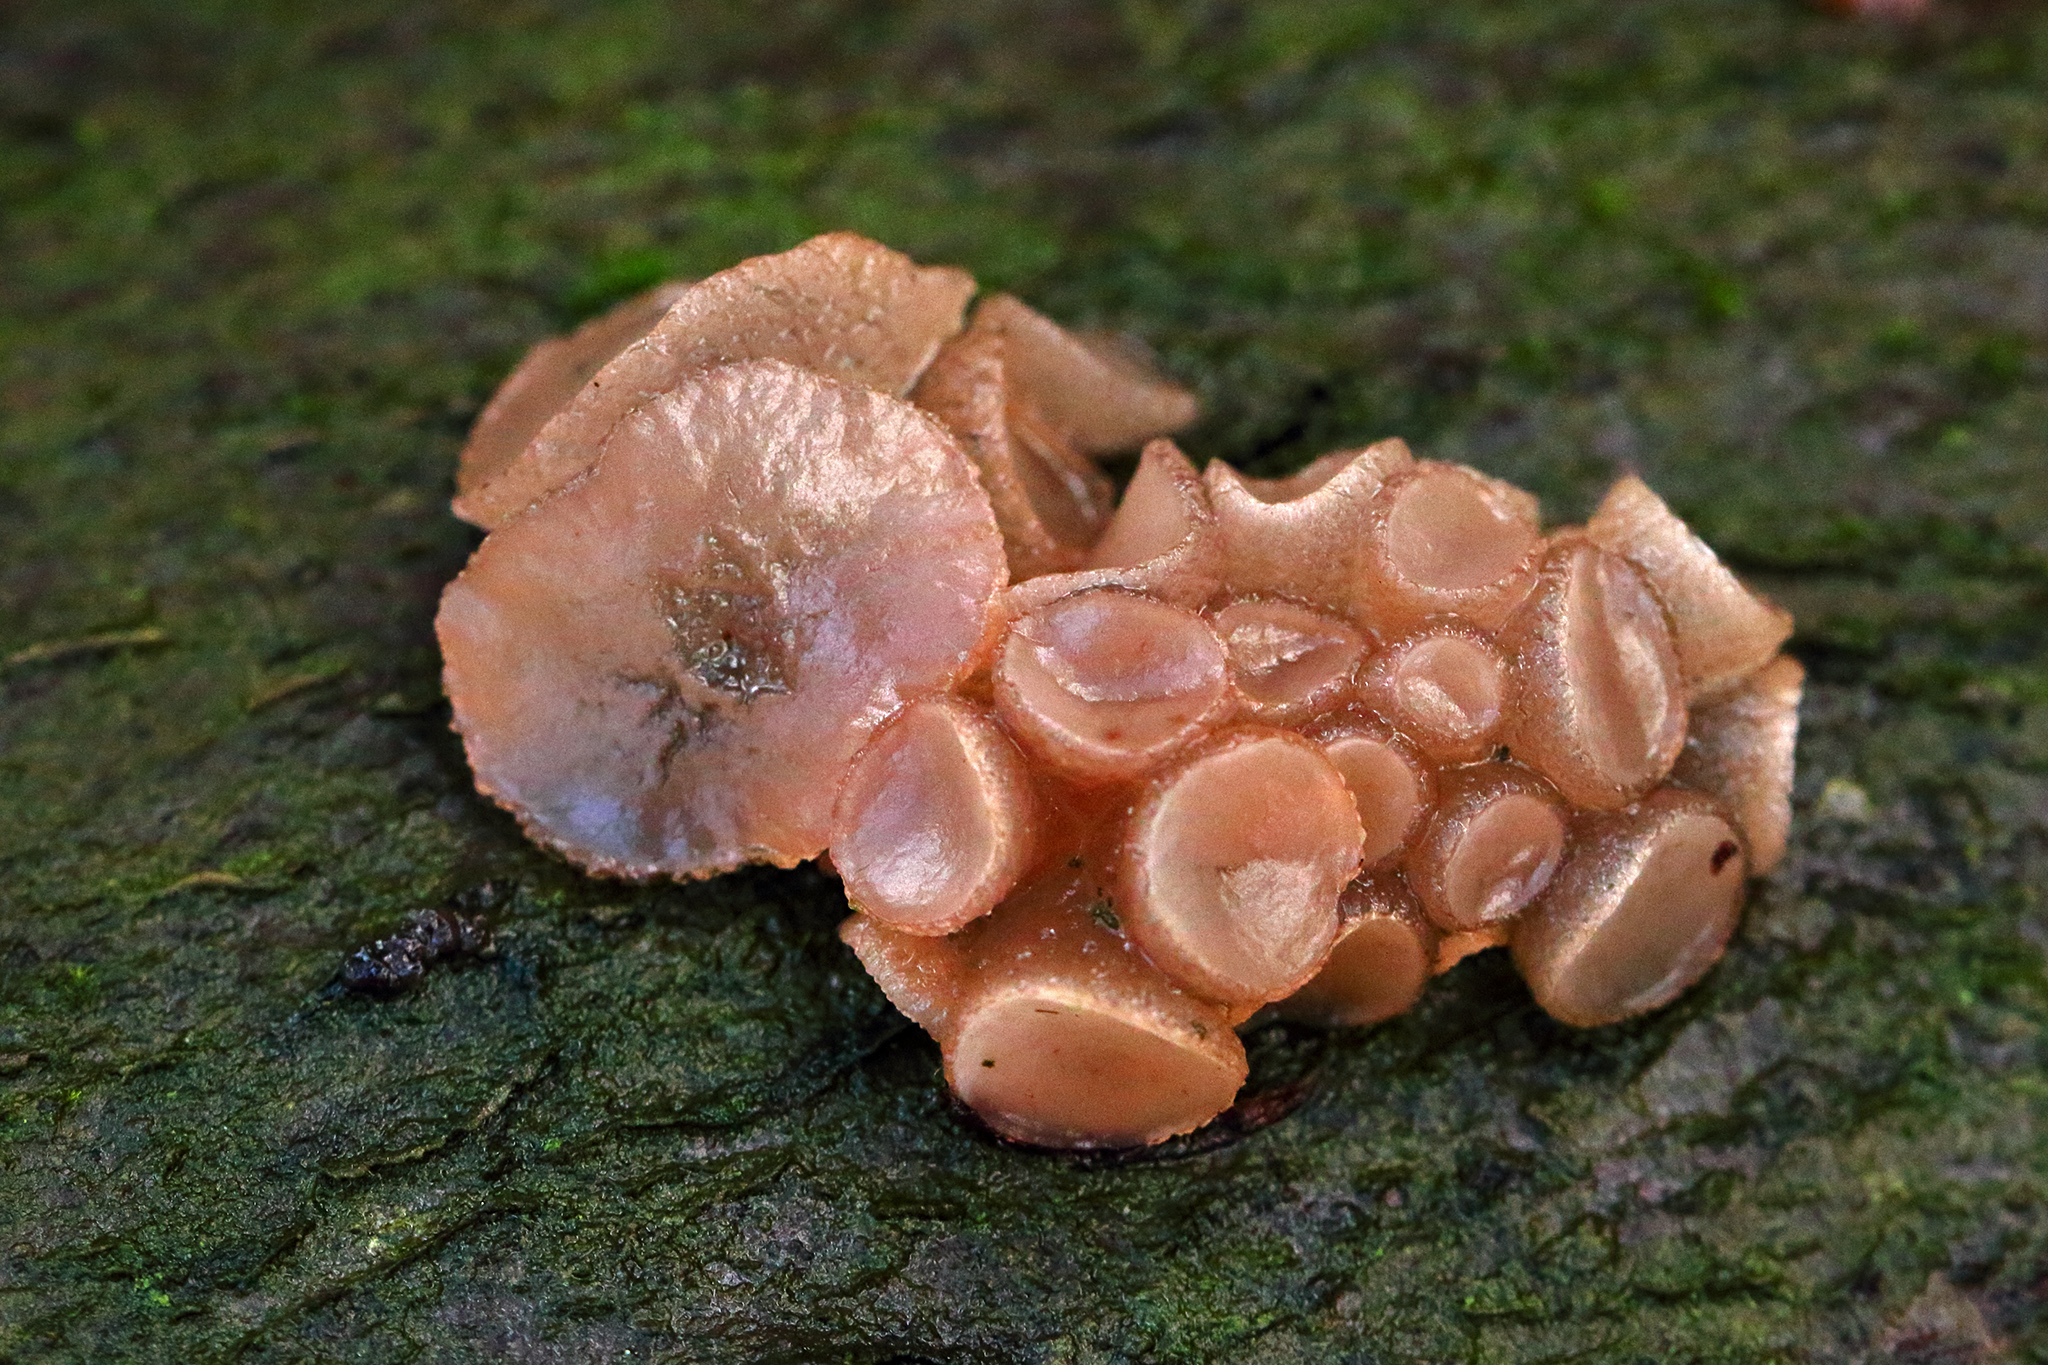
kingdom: Fungi
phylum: Ascomycota
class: Leotiomycetes
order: Helotiales
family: Gelatinodiscaceae
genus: Neobulgaria
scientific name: Neobulgaria pura
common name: Beech jelly-disc
